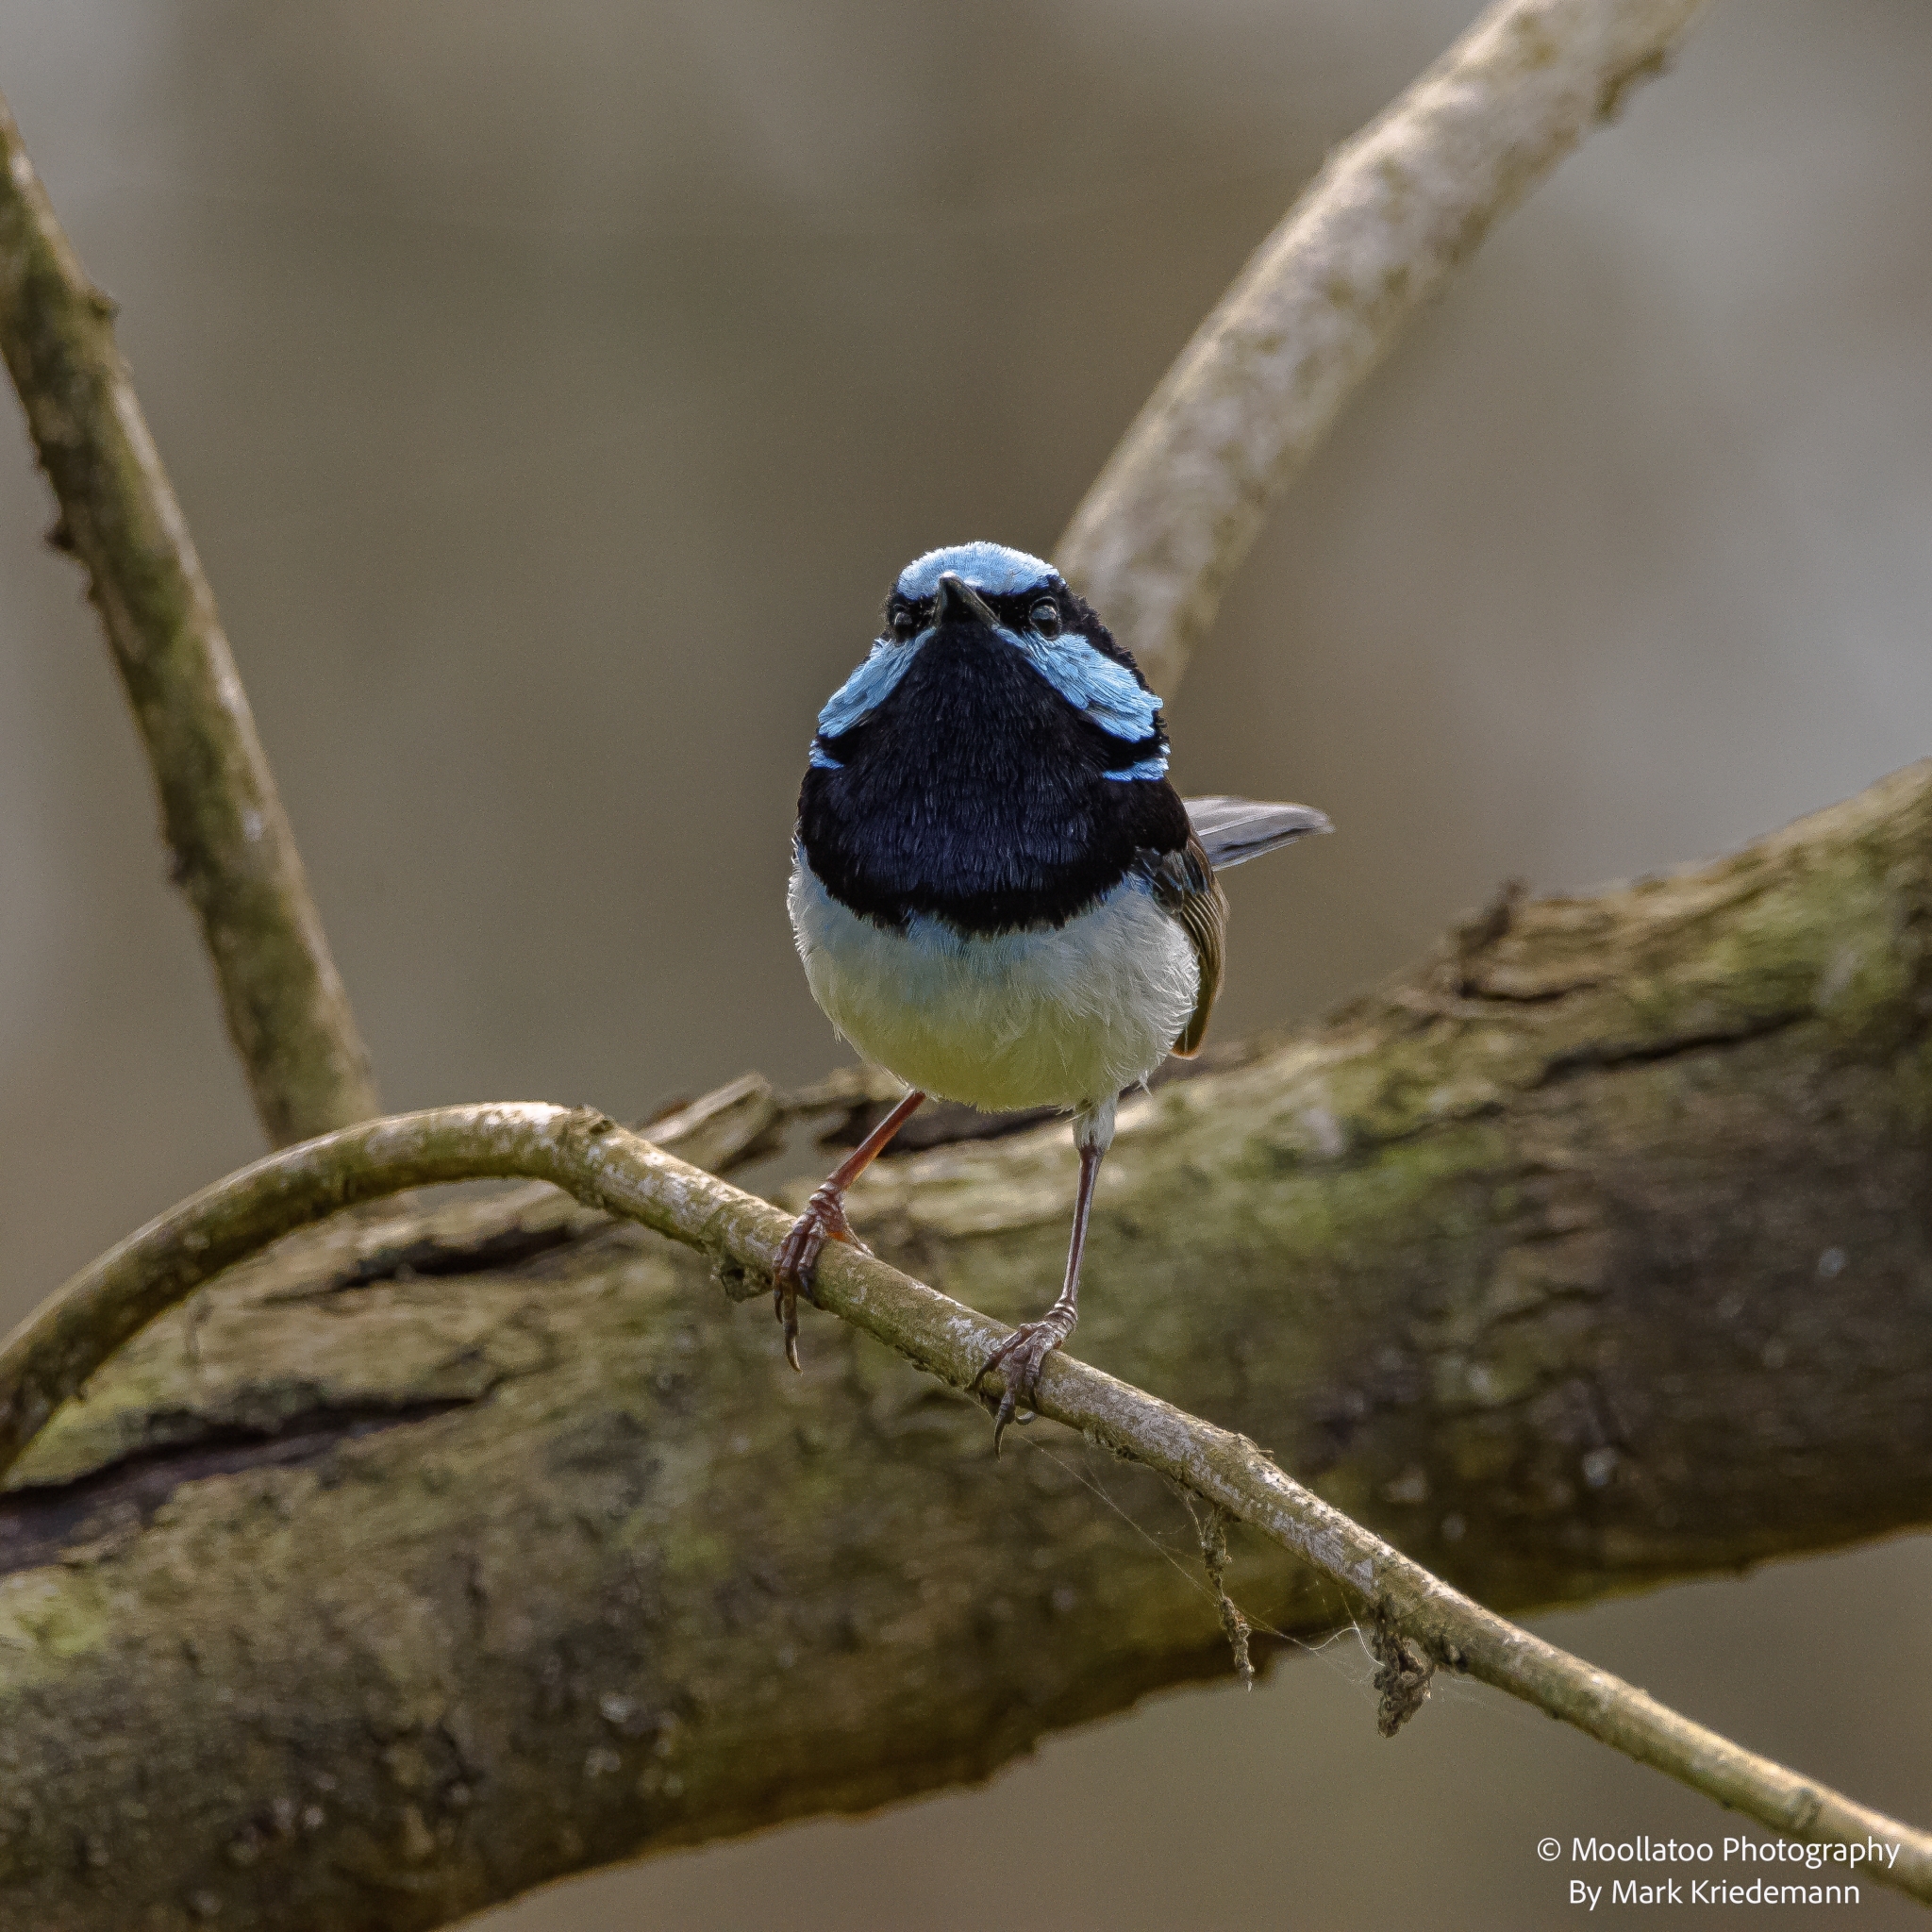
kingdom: Animalia
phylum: Chordata
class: Aves
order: Passeriformes
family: Maluridae
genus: Malurus
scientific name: Malurus cyaneus
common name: Superb fairywren
